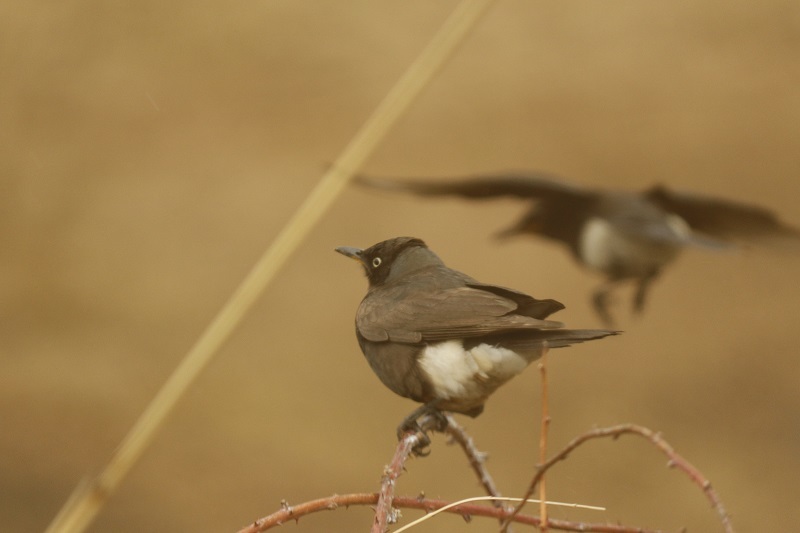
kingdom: Animalia
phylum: Chordata
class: Aves
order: Passeriformes
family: Sturnidae
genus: Lamprotornis
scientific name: Lamprotornis bicolor
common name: Pied starling
